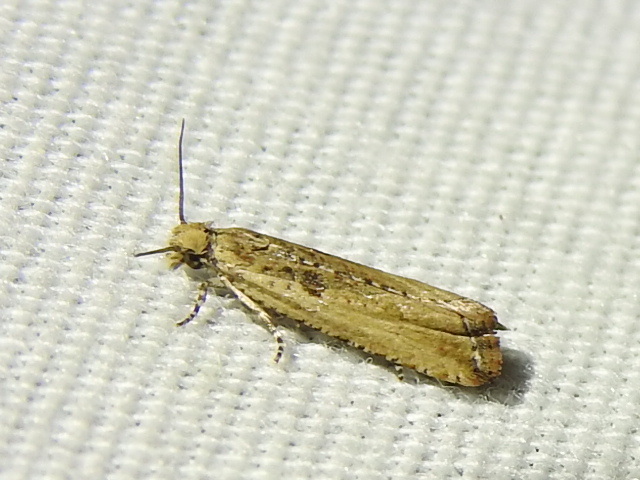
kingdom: Animalia
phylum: Arthropoda
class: Insecta
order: Lepidoptera
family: Tortricidae
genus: Bactra
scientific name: Bactra verutana
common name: Javelin moth
